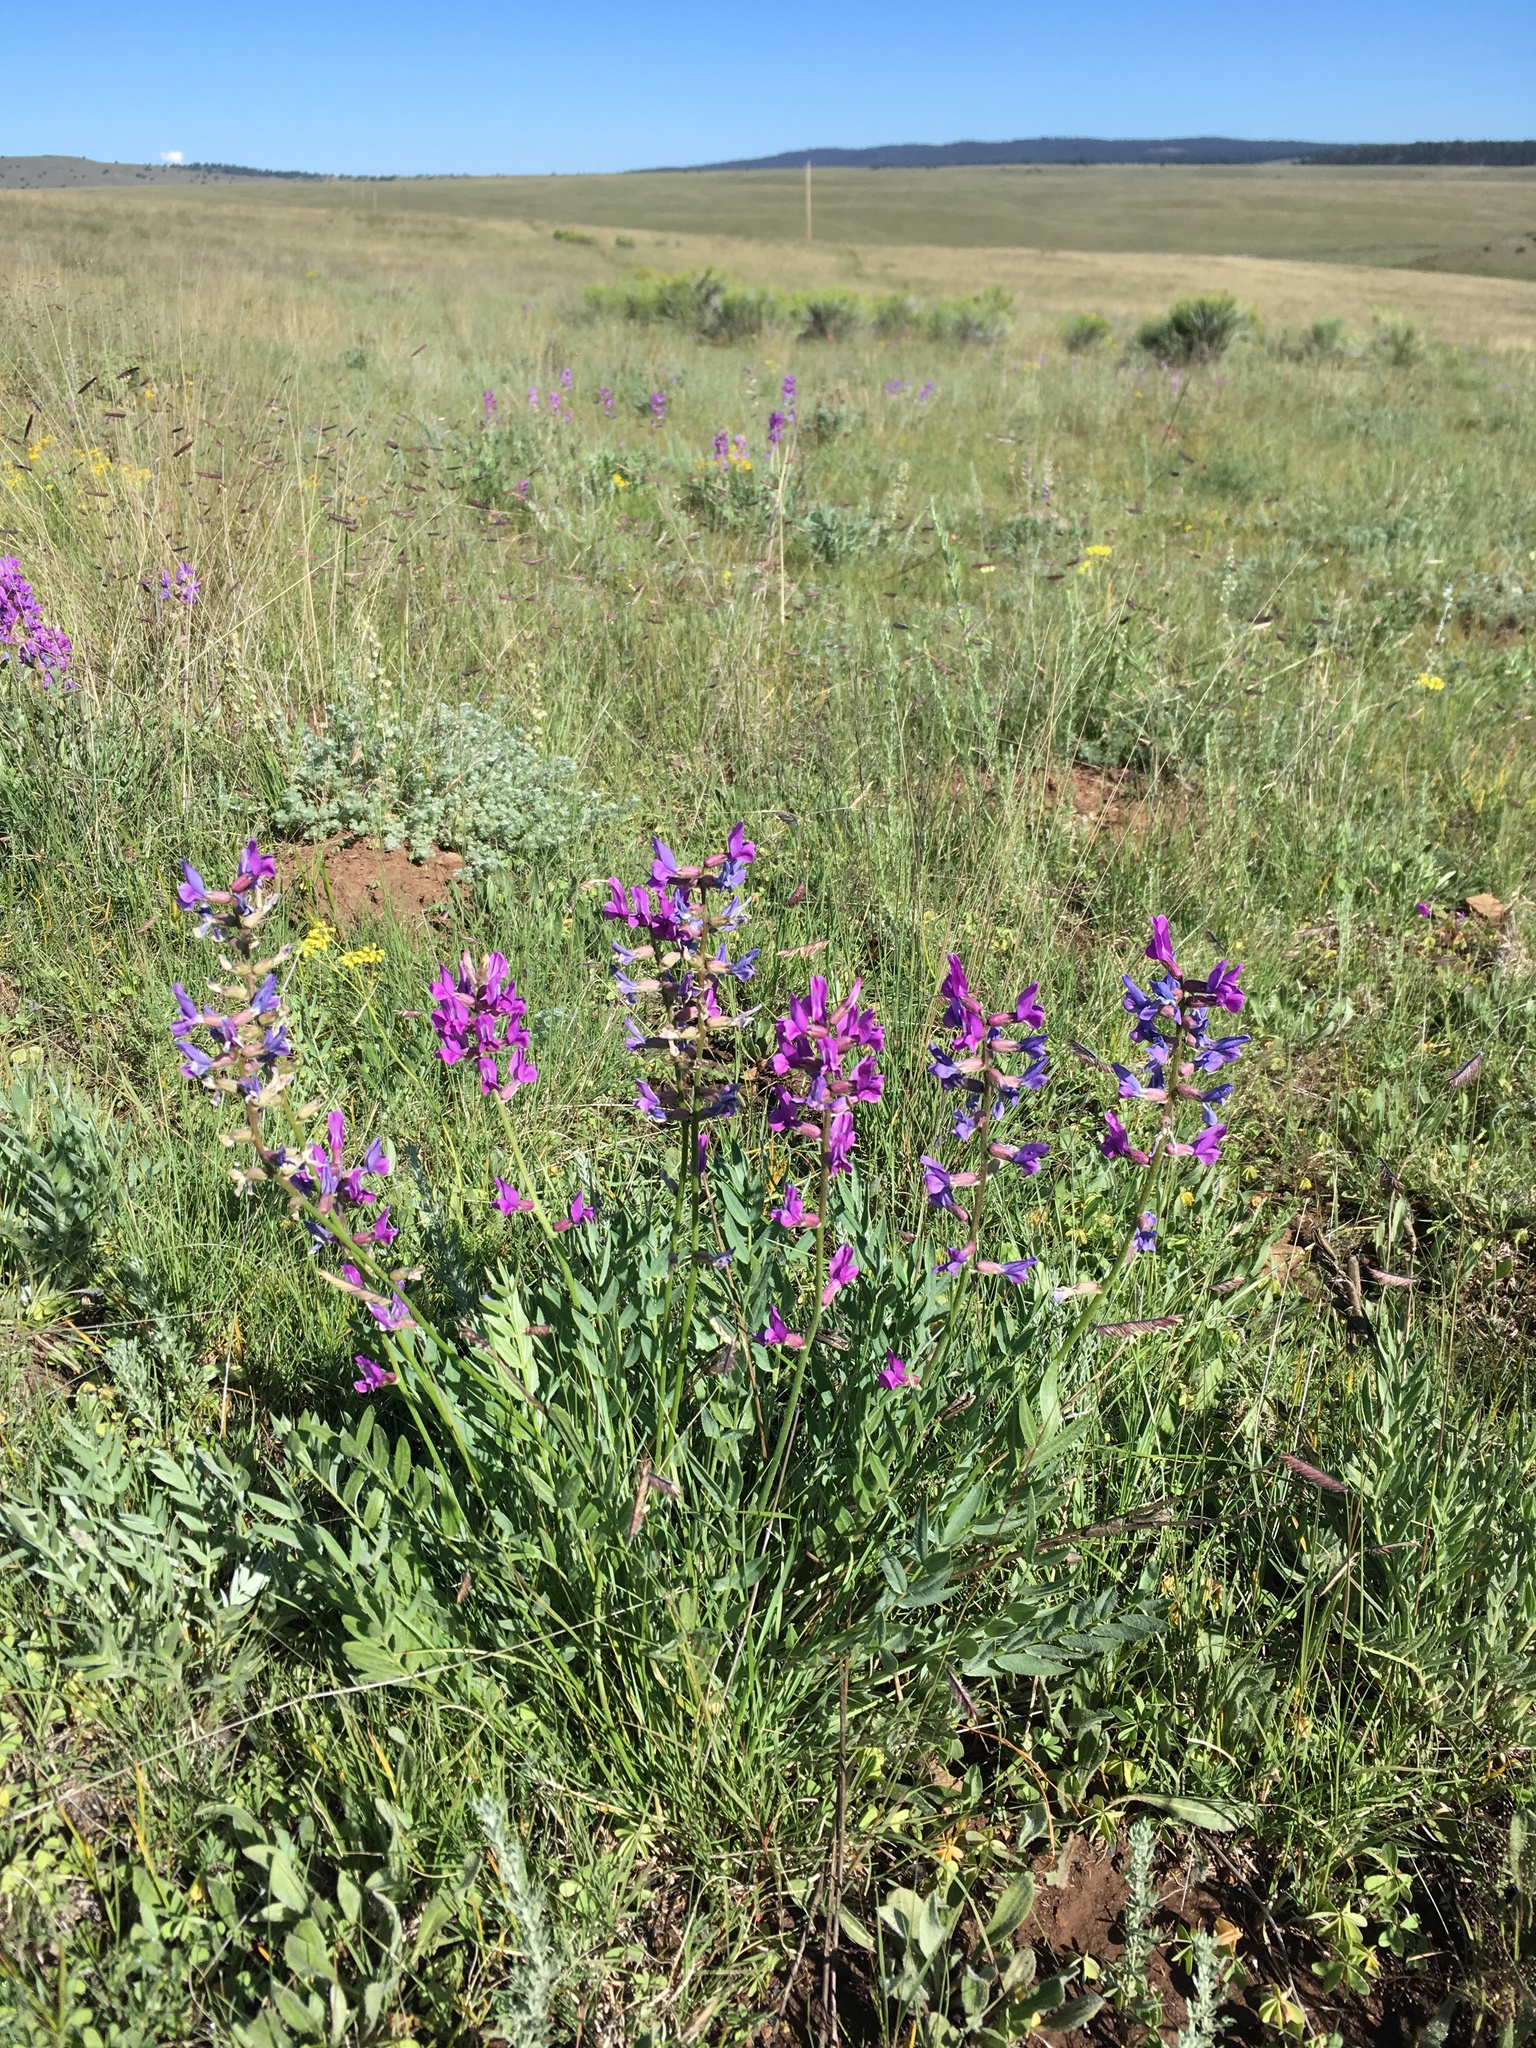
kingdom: Plantae
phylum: Tracheophyta
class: Magnoliopsida
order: Fabales
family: Fabaceae
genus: Oxytropis
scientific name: Oxytropis lambertii
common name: Purple locoweed
